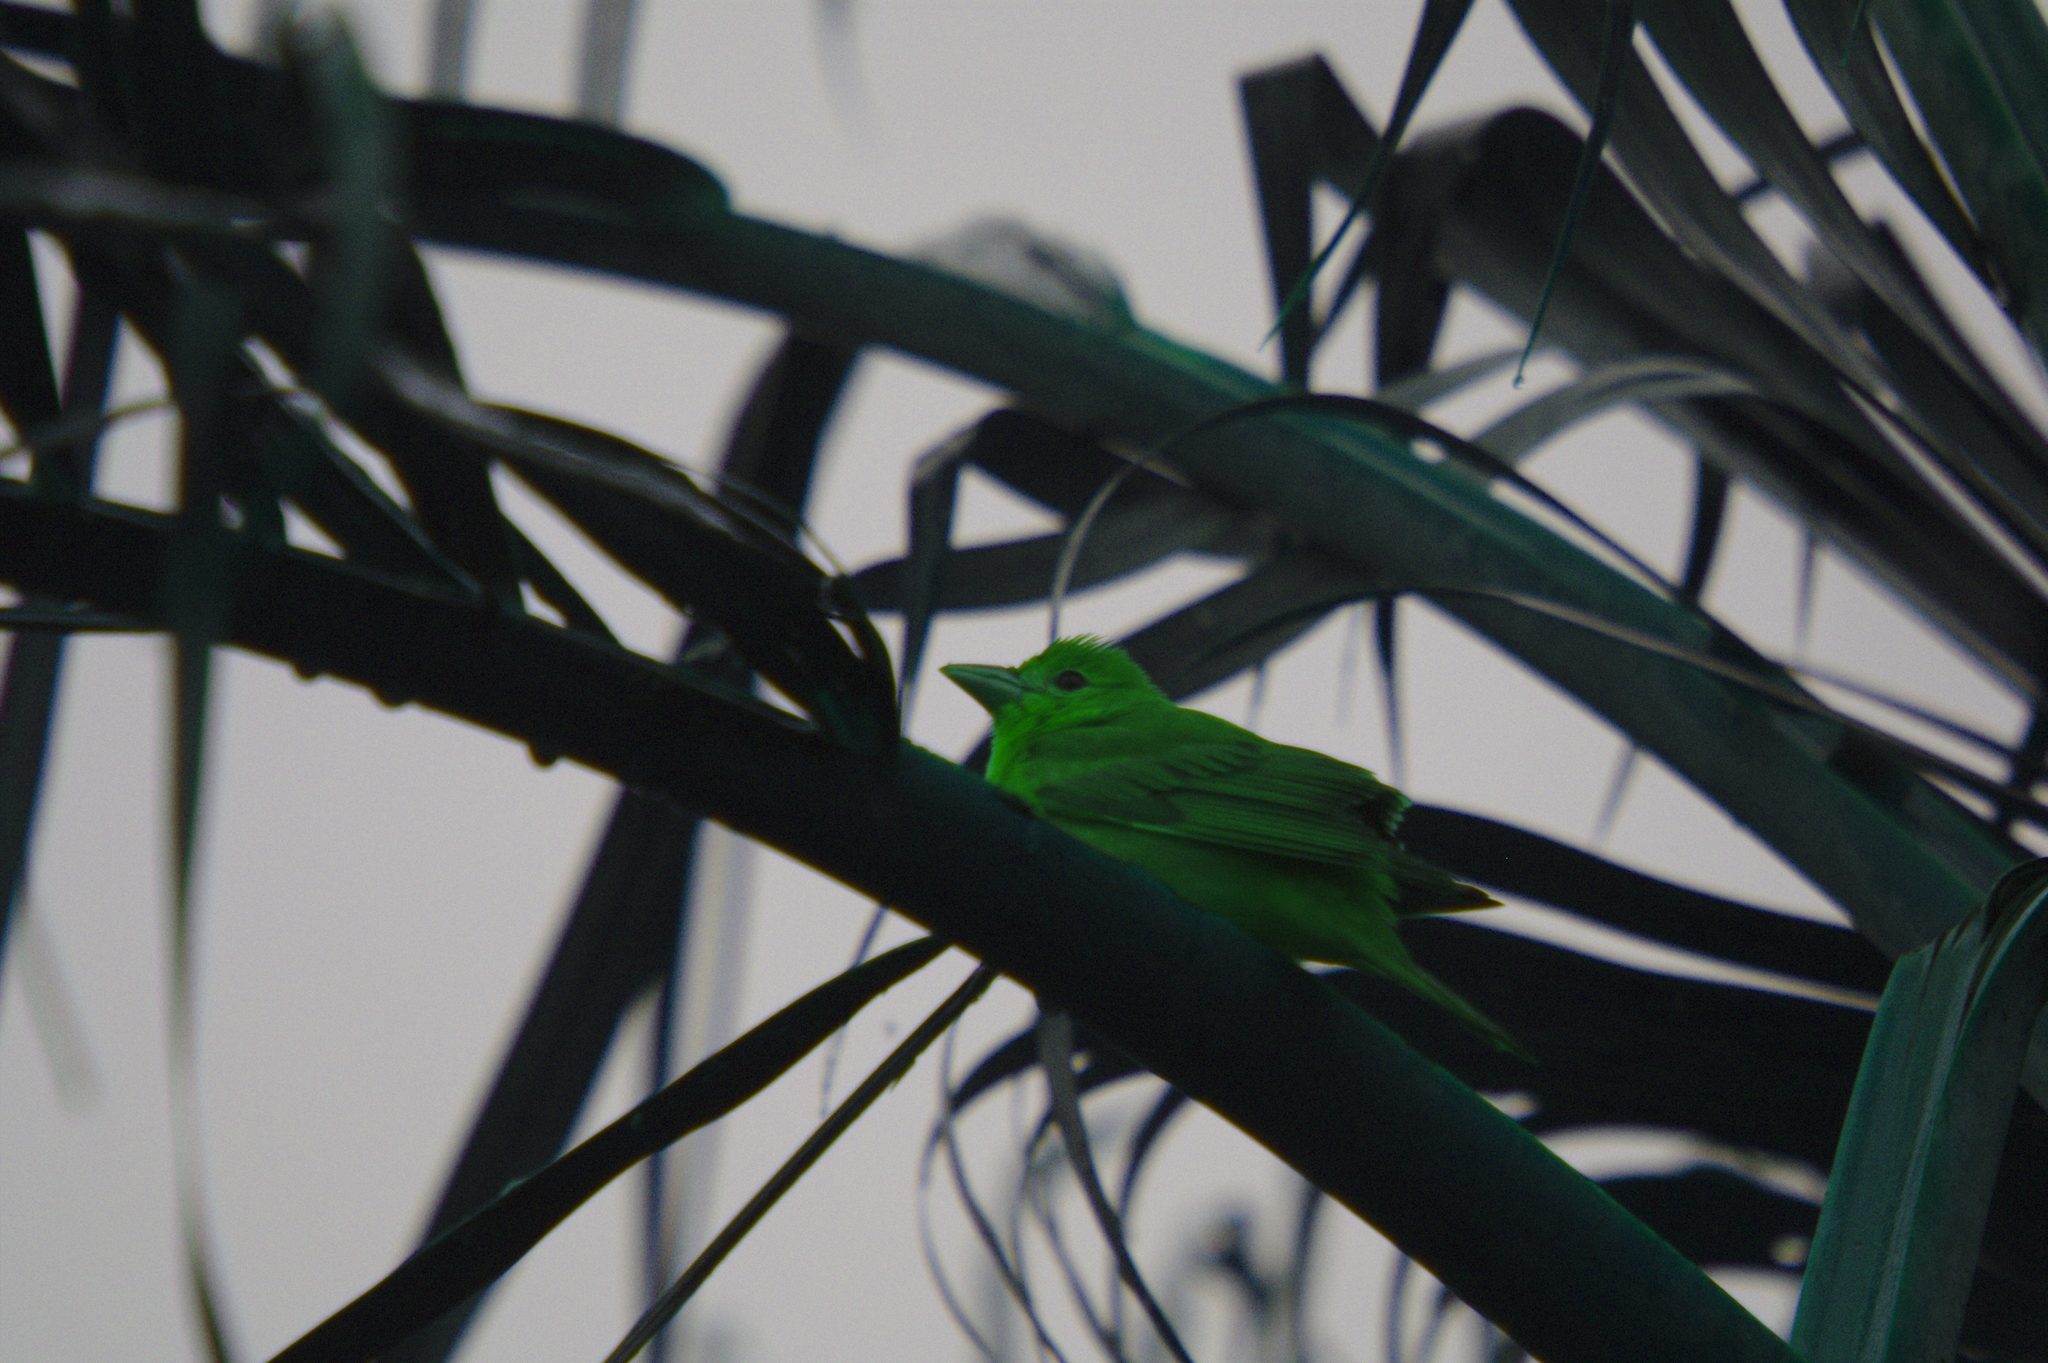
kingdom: Animalia
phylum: Chordata
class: Aves
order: Passeriformes
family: Cardinalidae
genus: Piranga
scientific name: Piranga rubra
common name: Summer tanager
